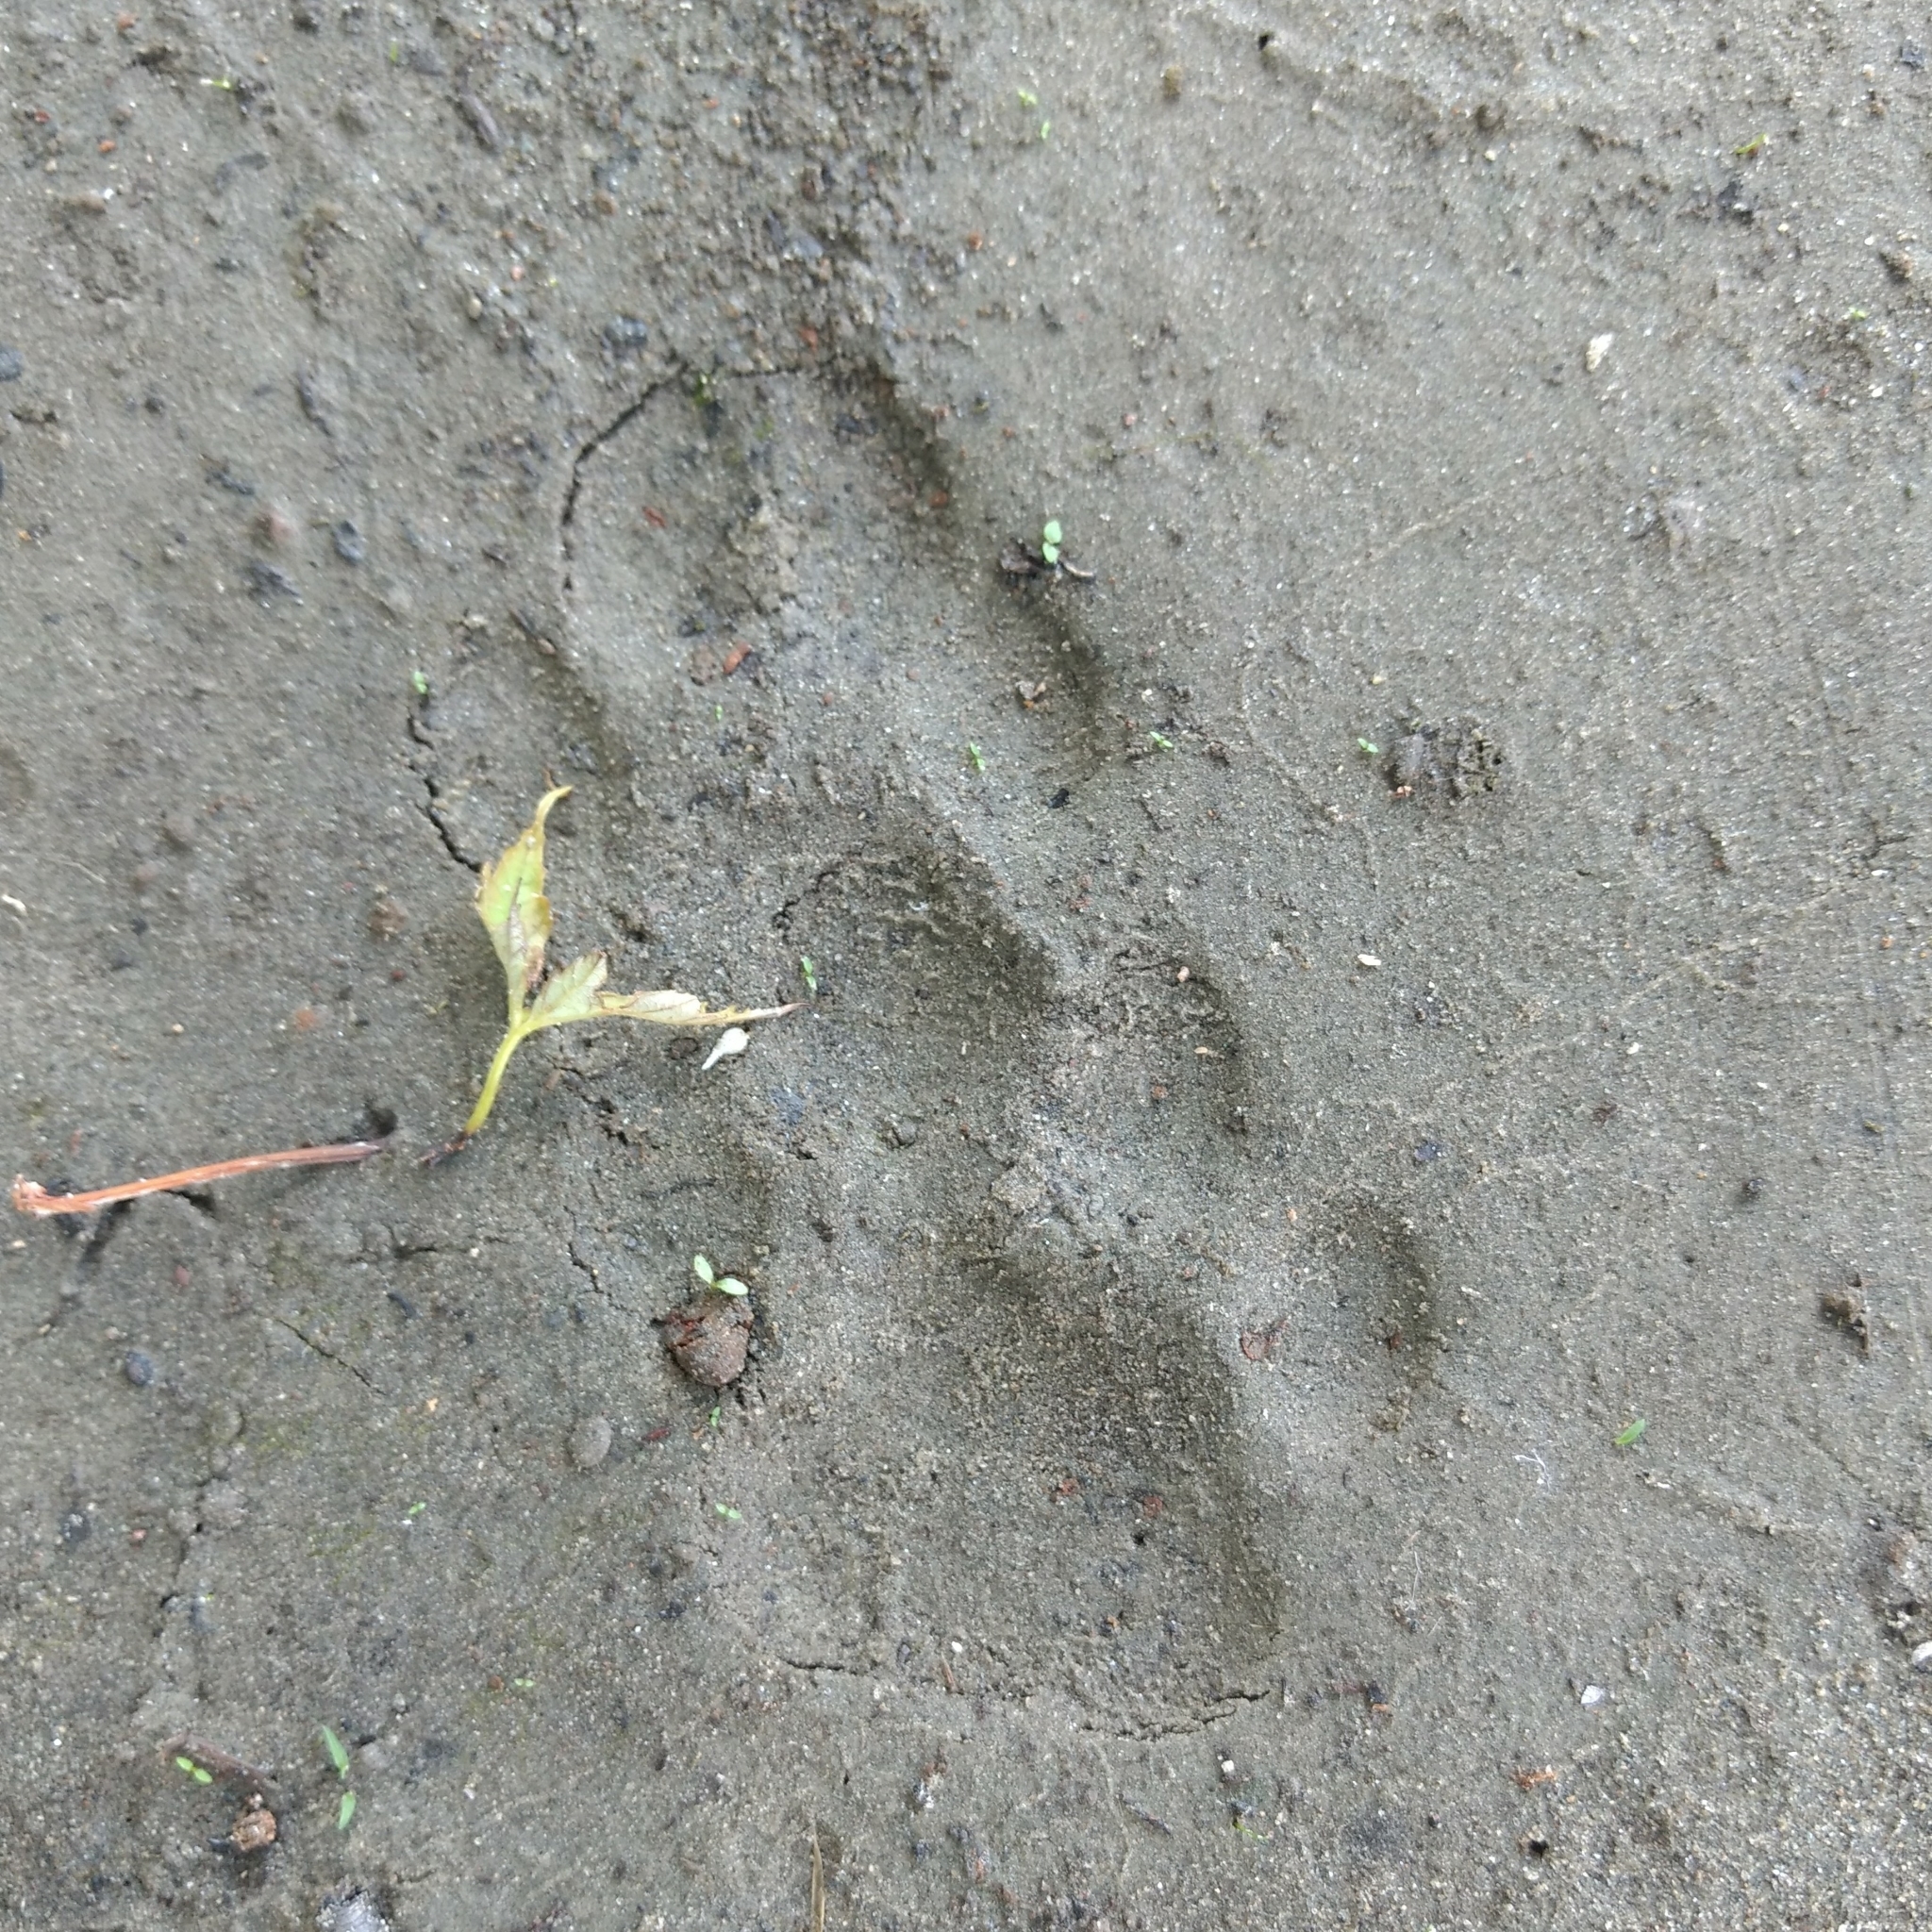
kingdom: Animalia
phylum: Chordata
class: Mammalia
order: Carnivora
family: Felidae
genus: Lynx
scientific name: Lynx rufus
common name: Bobcat
